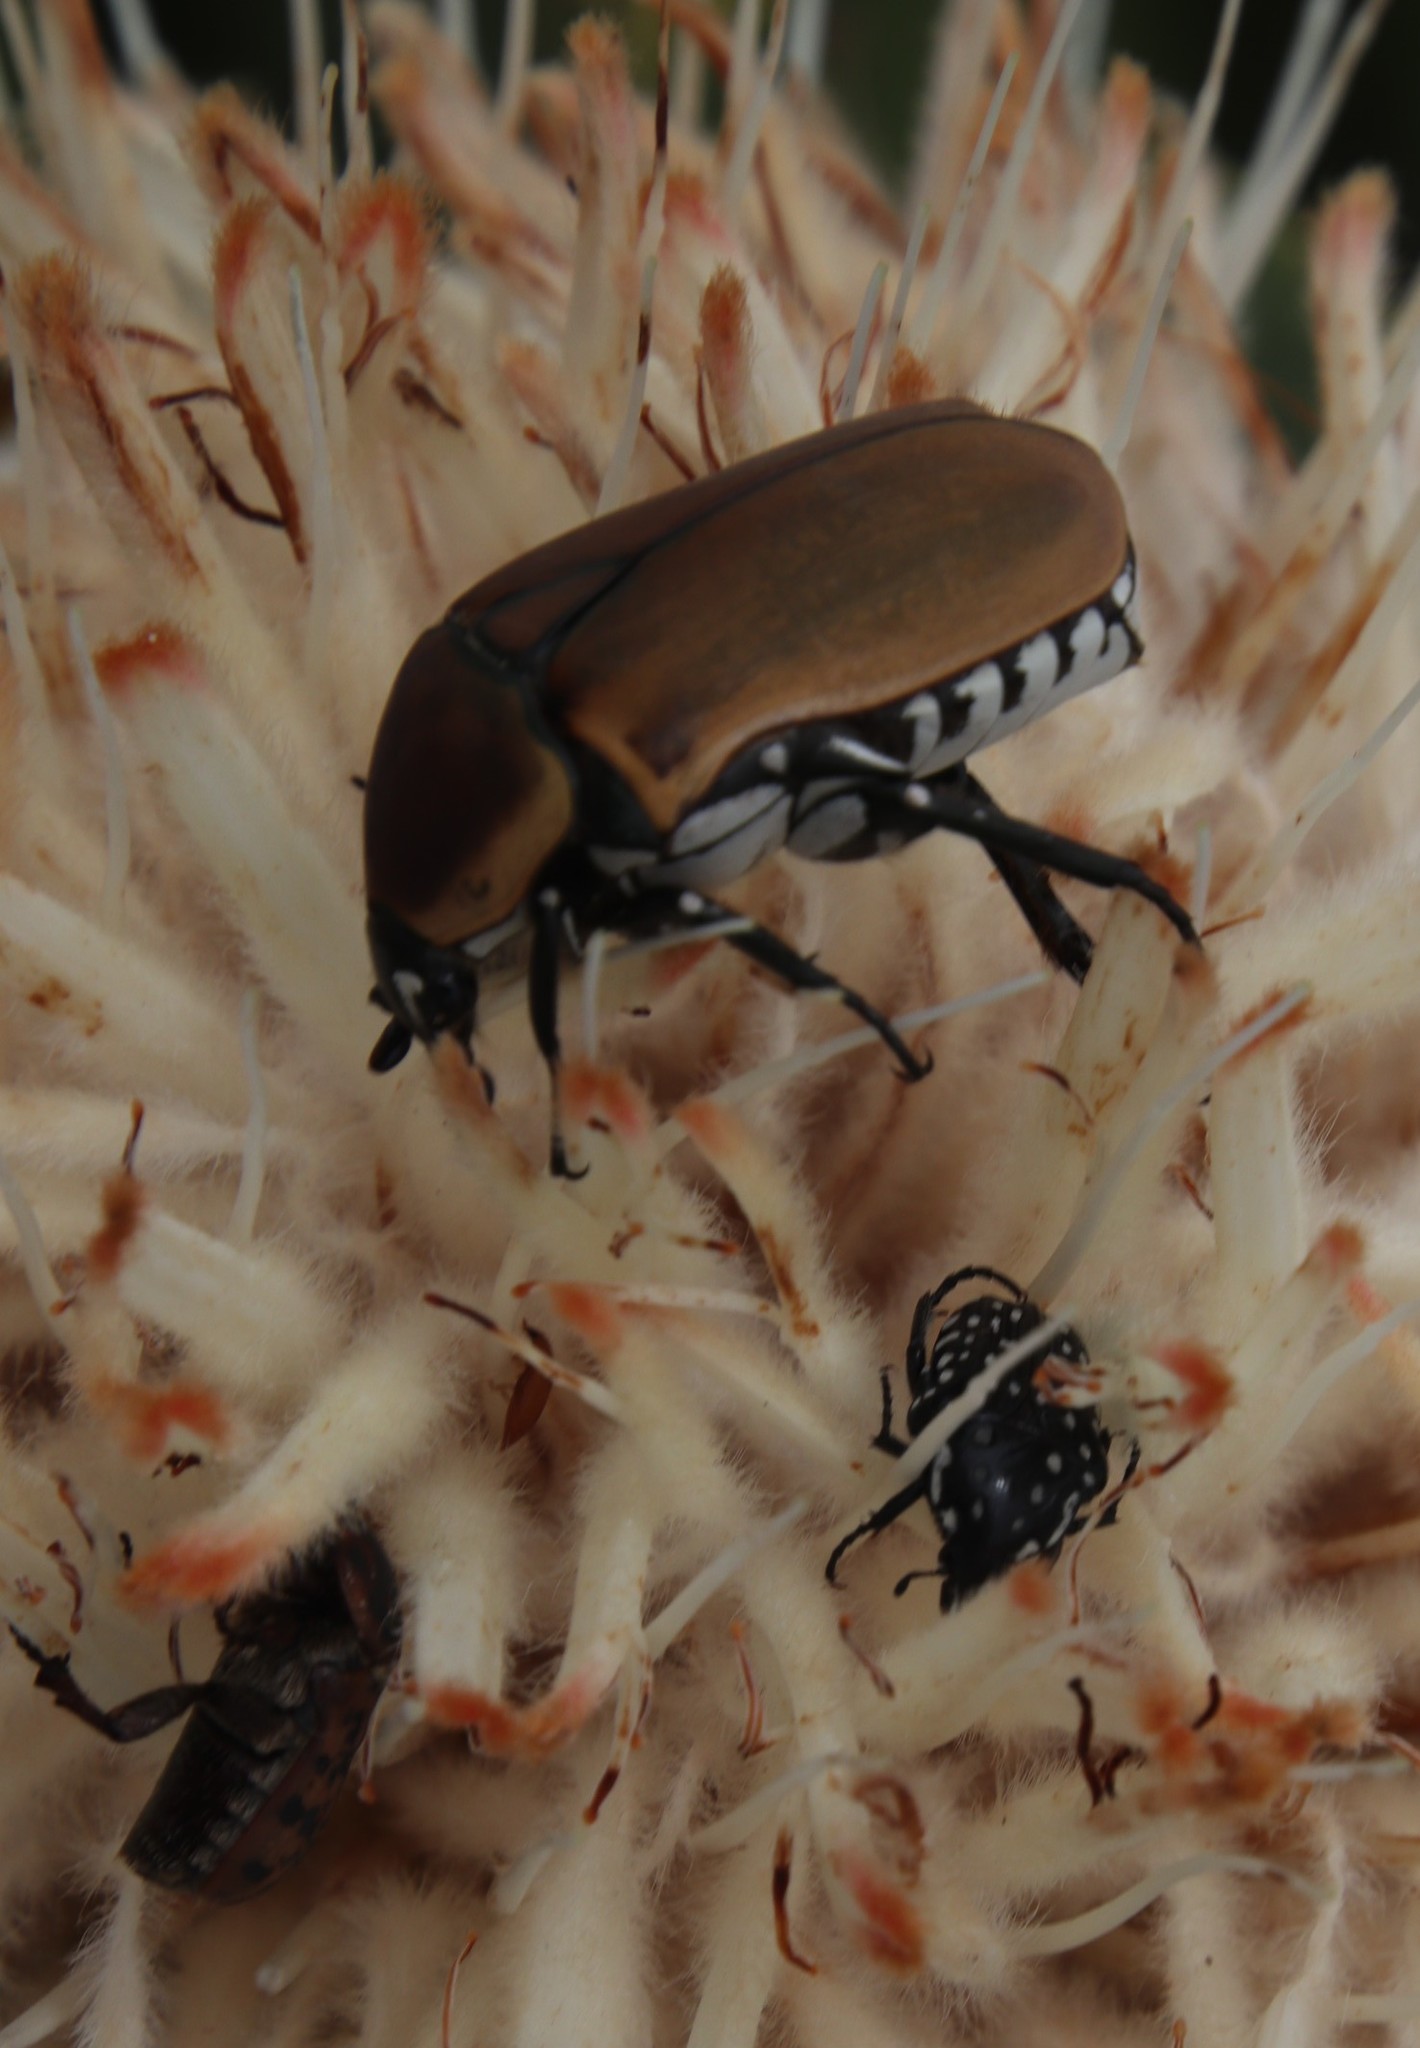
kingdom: Animalia
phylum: Arthropoda
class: Insecta
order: Coleoptera
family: Scarabaeidae
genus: Dischista
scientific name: Dischista rufa
